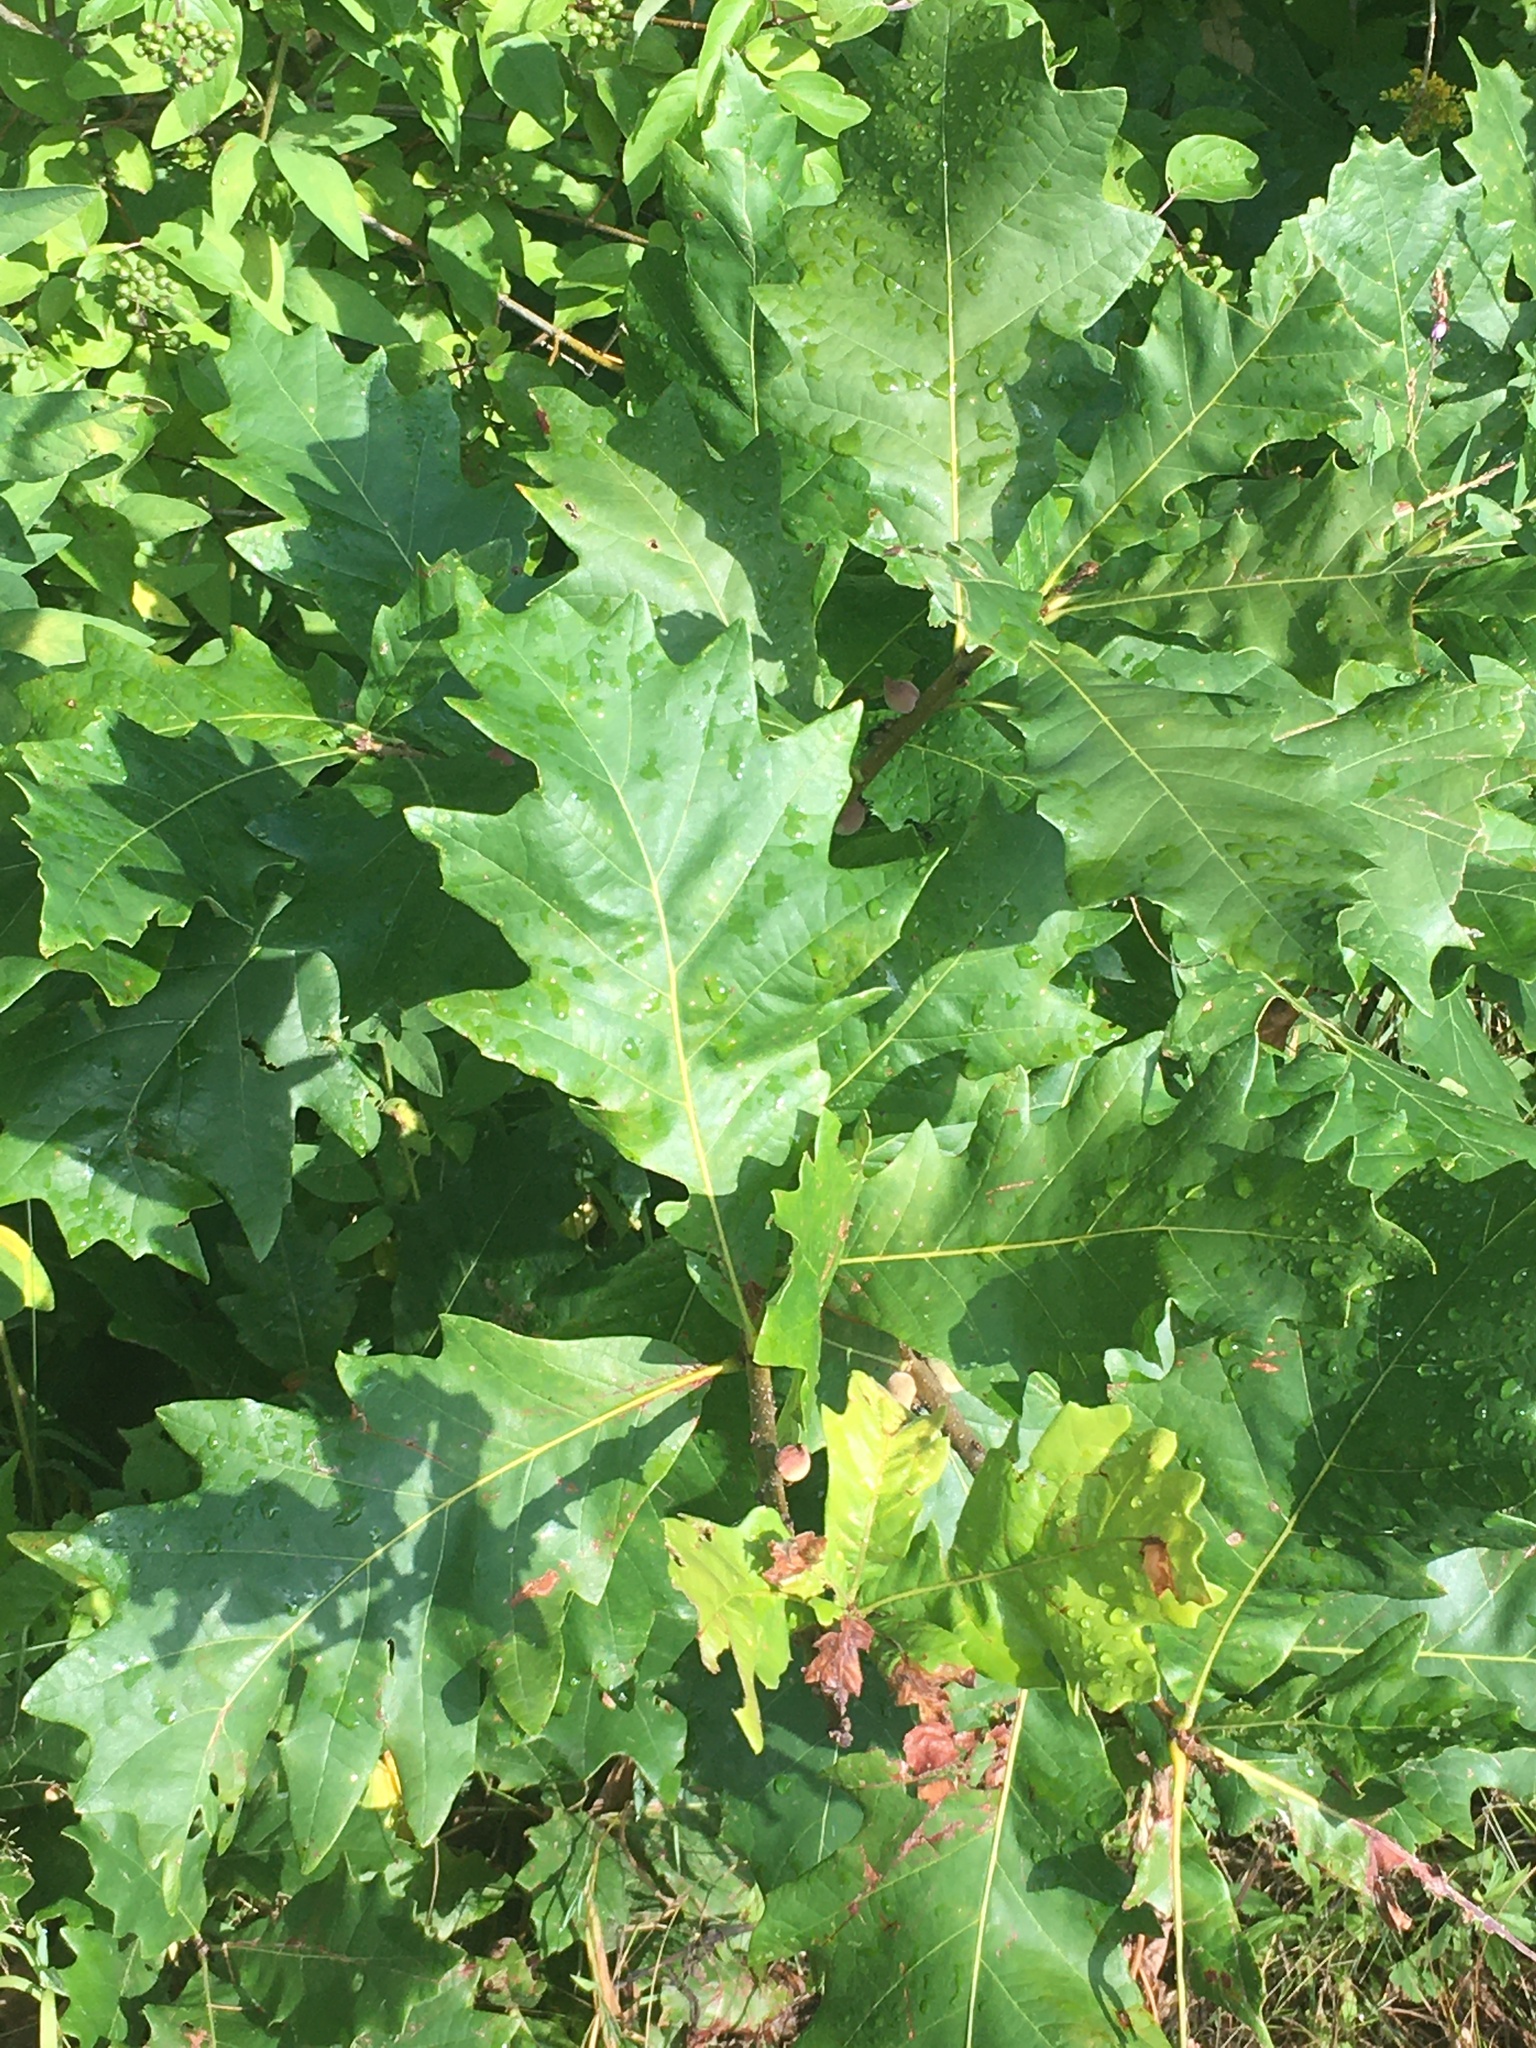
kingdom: Plantae
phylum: Tracheophyta
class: Magnoliopsida
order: Fagales
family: Fagaceae
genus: Quercus
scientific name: Quercus rubra
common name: Red oak
